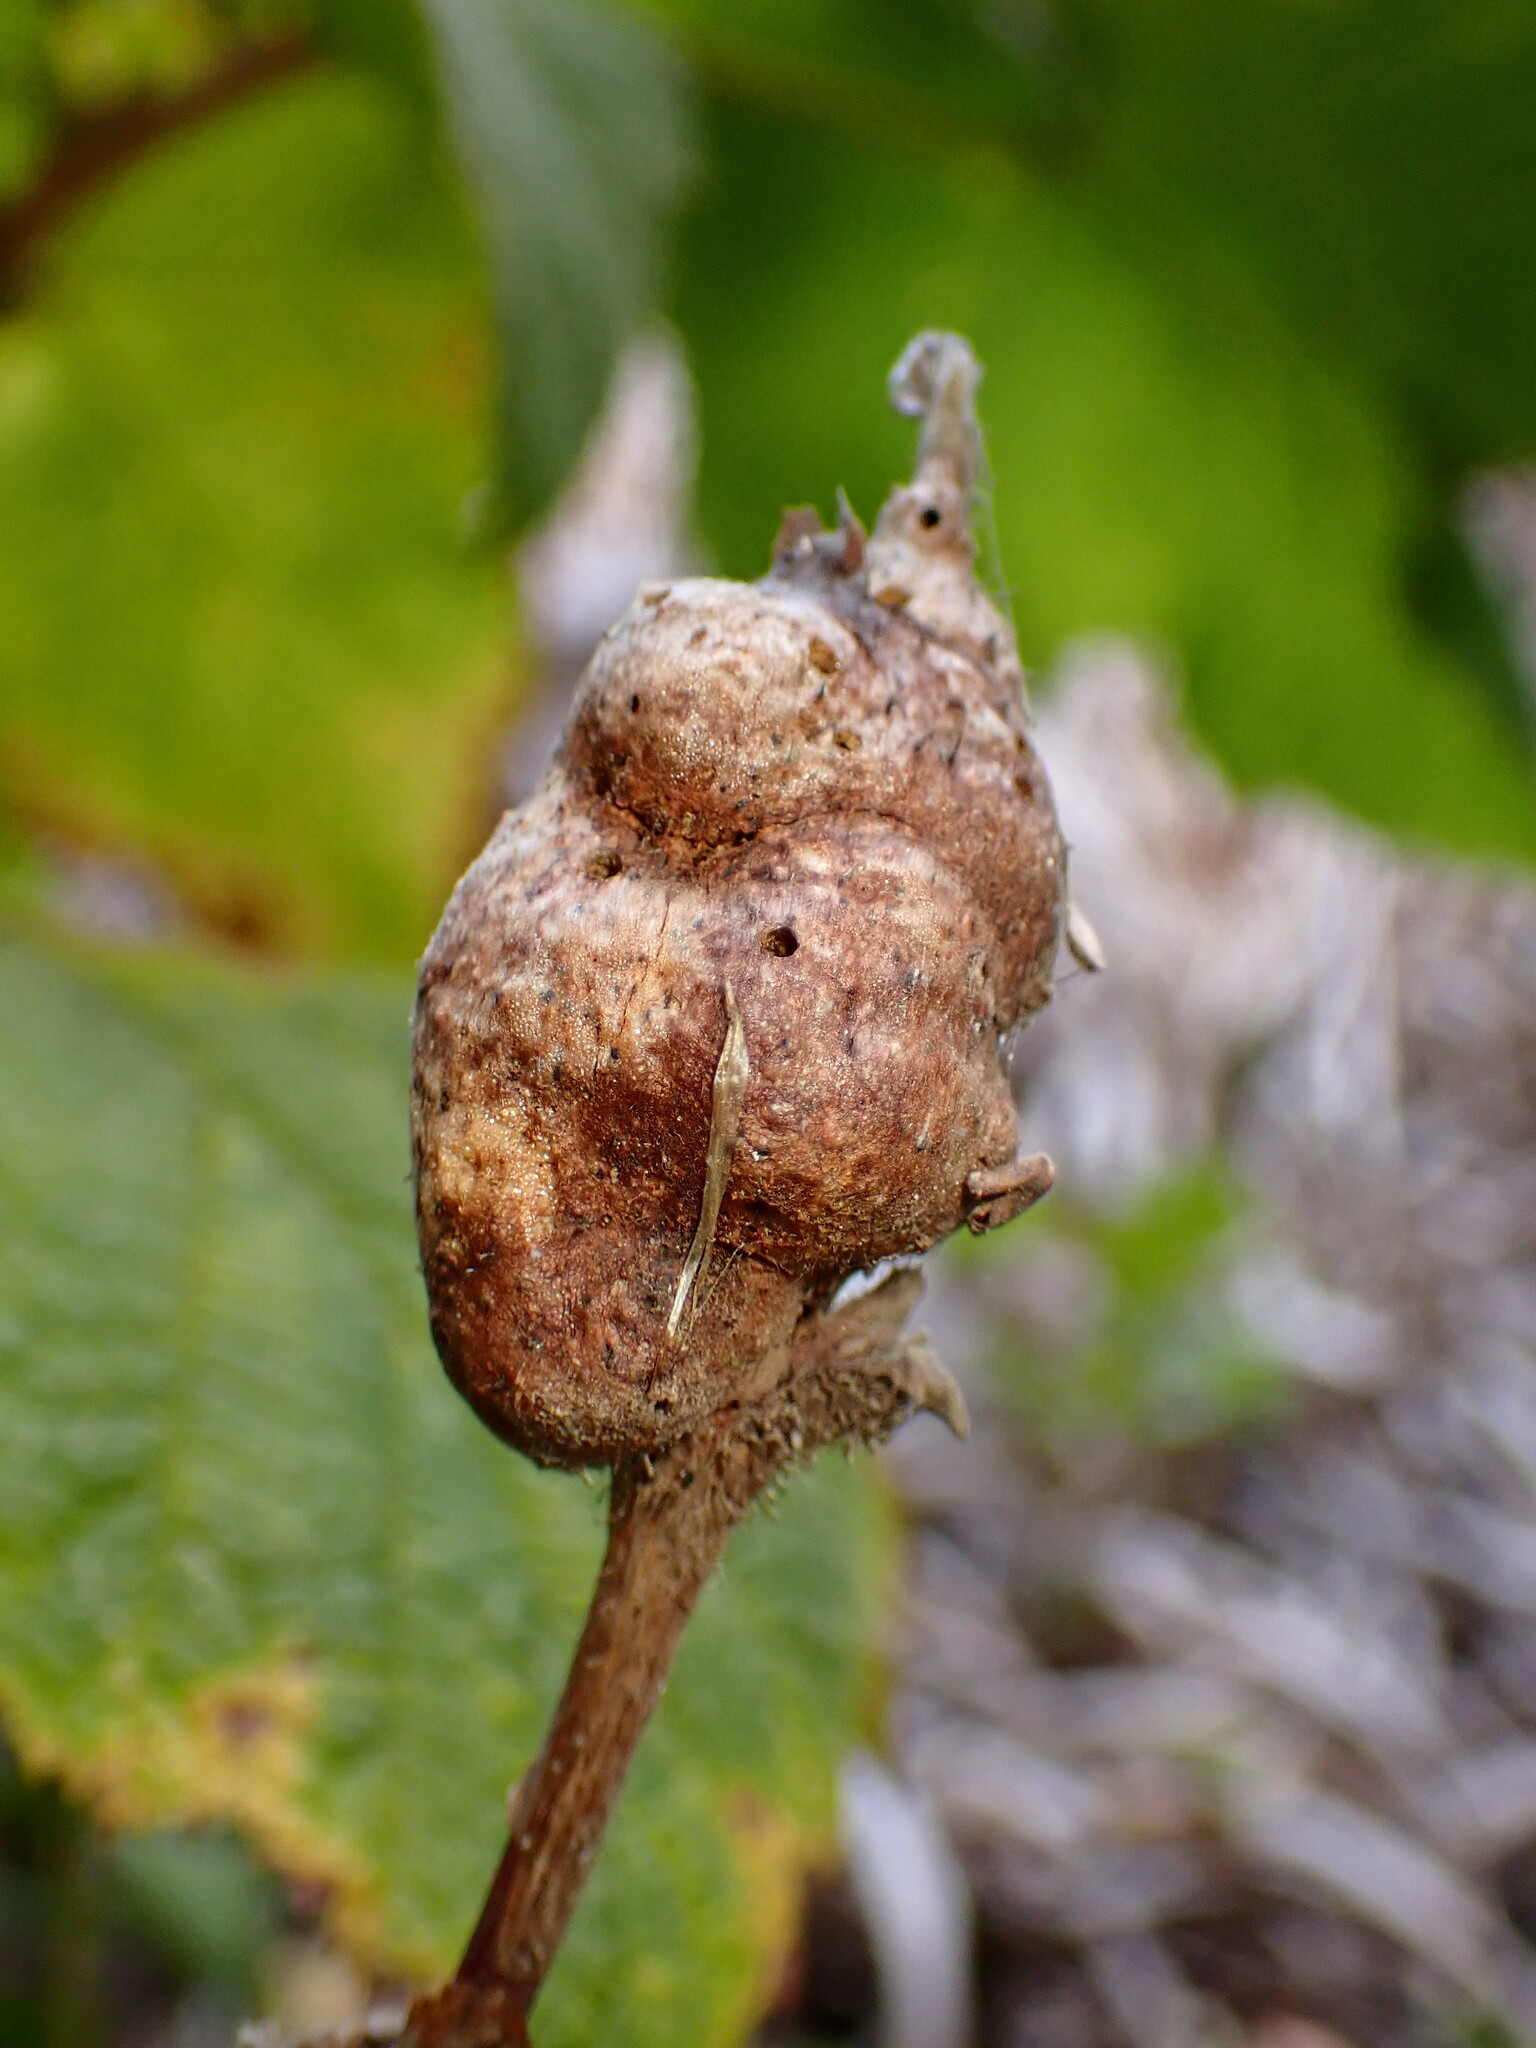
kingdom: Animalia
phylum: Arthropoda
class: Insecta
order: Hymenoptera
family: Cynipidae
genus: Diastrophus
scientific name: Diastrophus
